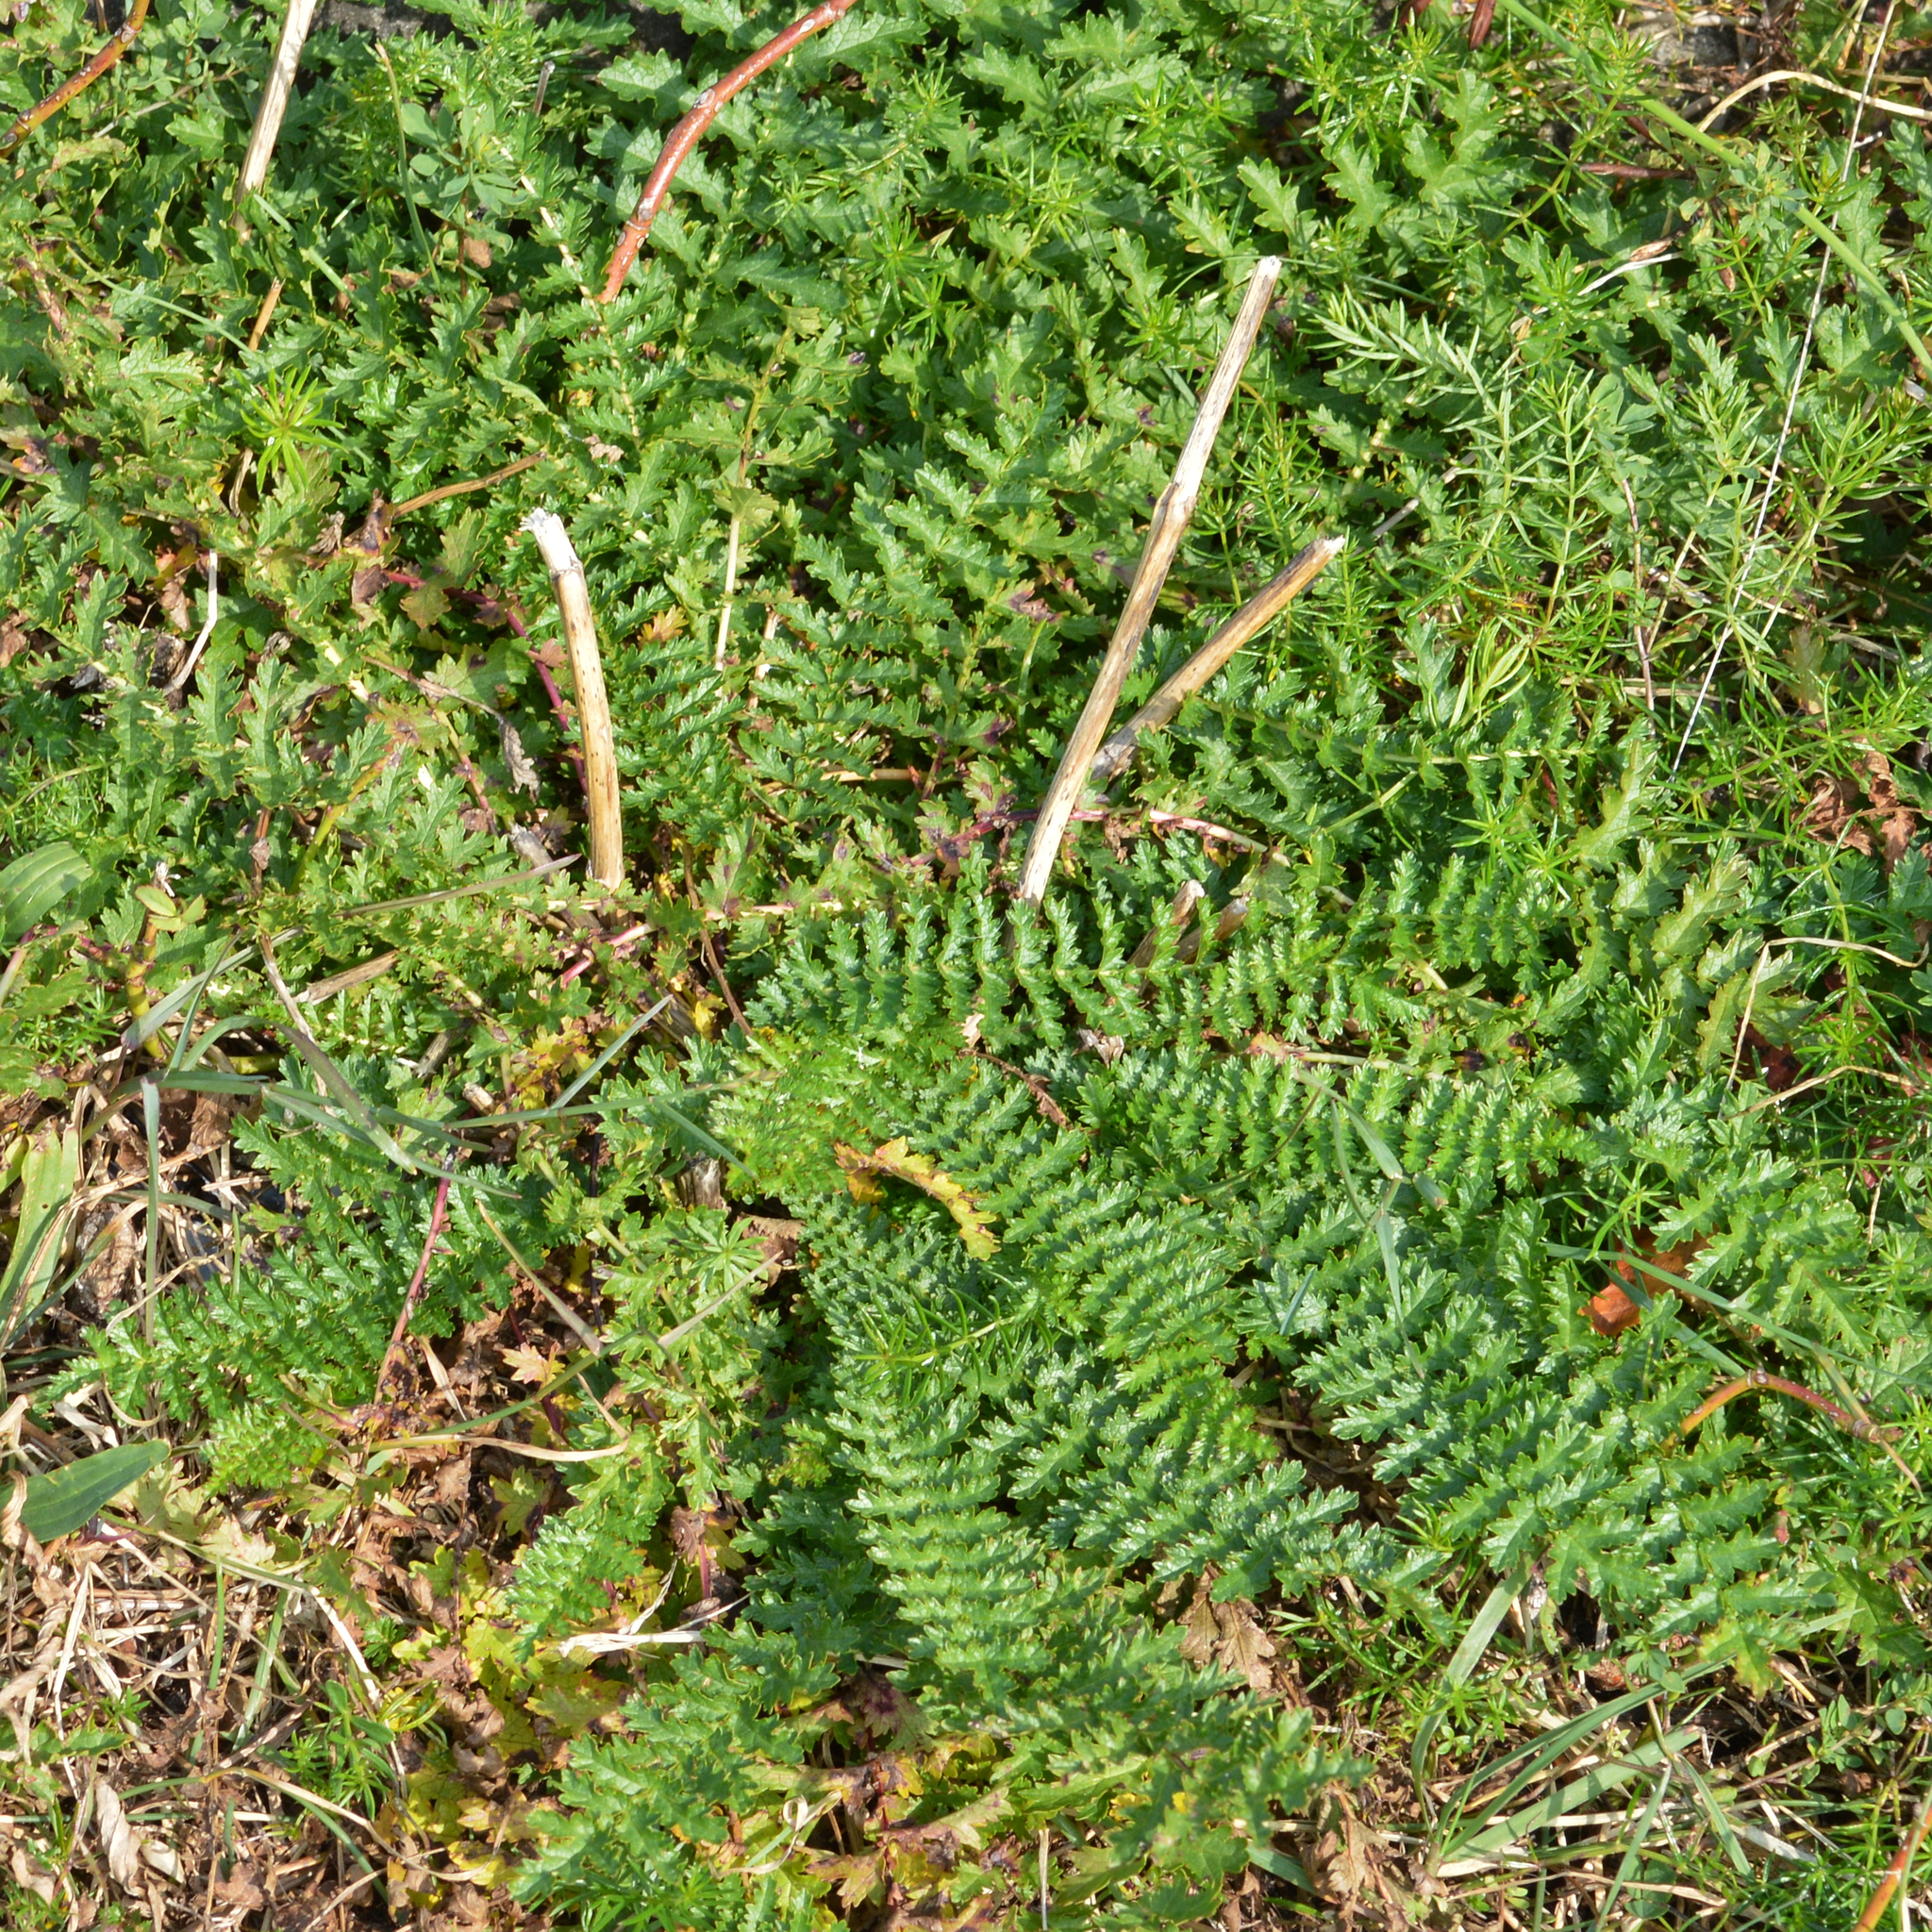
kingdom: Plantae
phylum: Tracheophyta
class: Magnoliopsida
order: Rosales
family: Rosaceae
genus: Filipendula
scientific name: Filipendula vulgaris
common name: Dropwort
